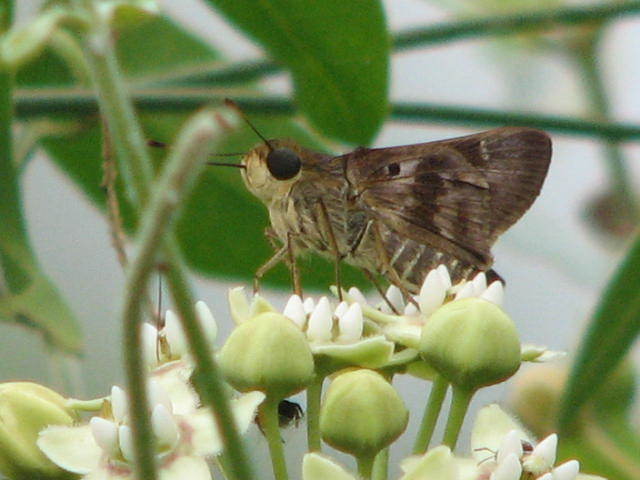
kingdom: Animalia
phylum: Arthropoda
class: Insecta
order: Lepidoptera
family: Hesperiidae
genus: Nyctelius
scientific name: Nyctelius nyctelius
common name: Violet-banded skipper
